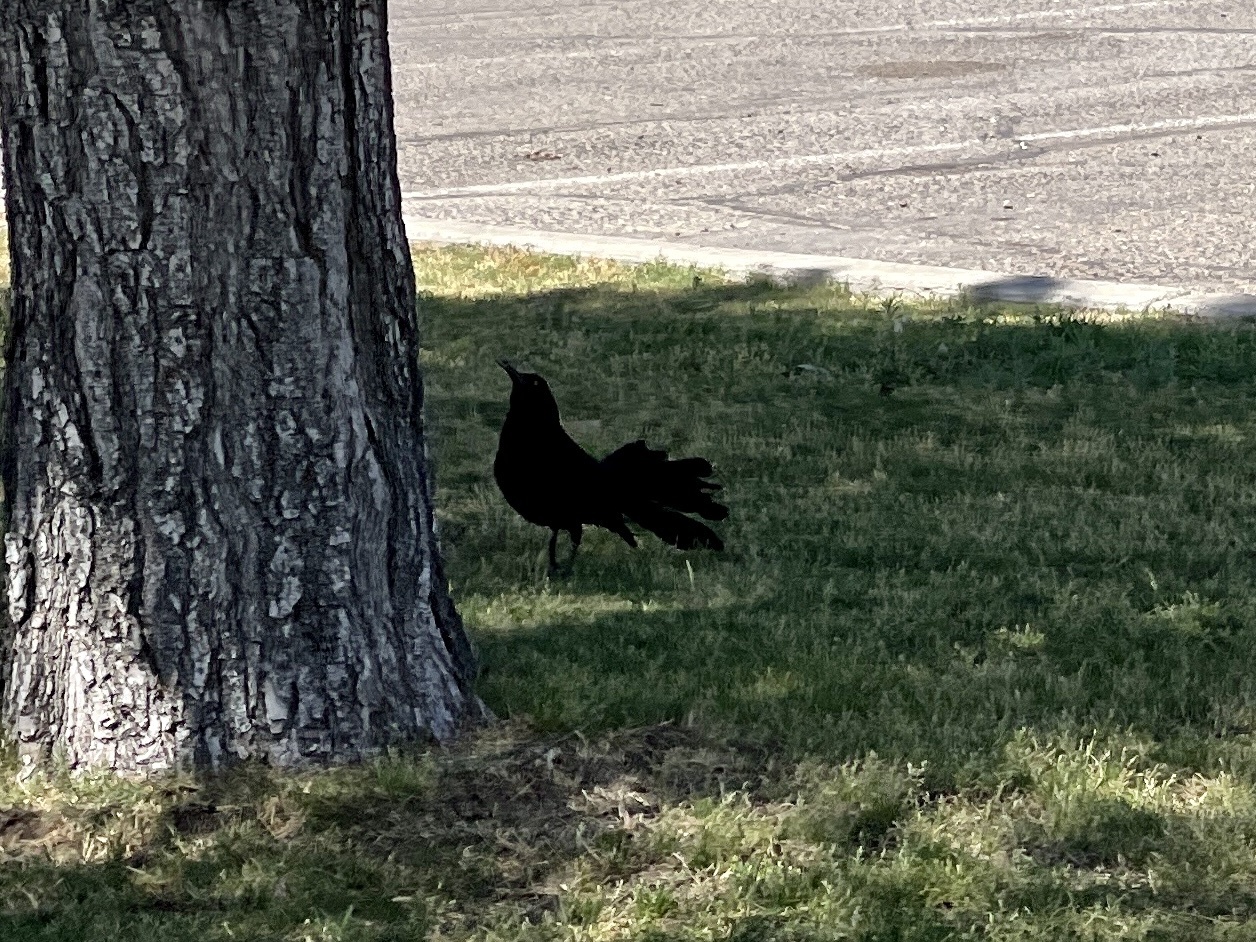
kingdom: Animalia
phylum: Chordata
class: Aves
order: Passeriformes
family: Icteridae
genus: Quiscalus
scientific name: Quiscalus mexicanus
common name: Great-tailed grackle
